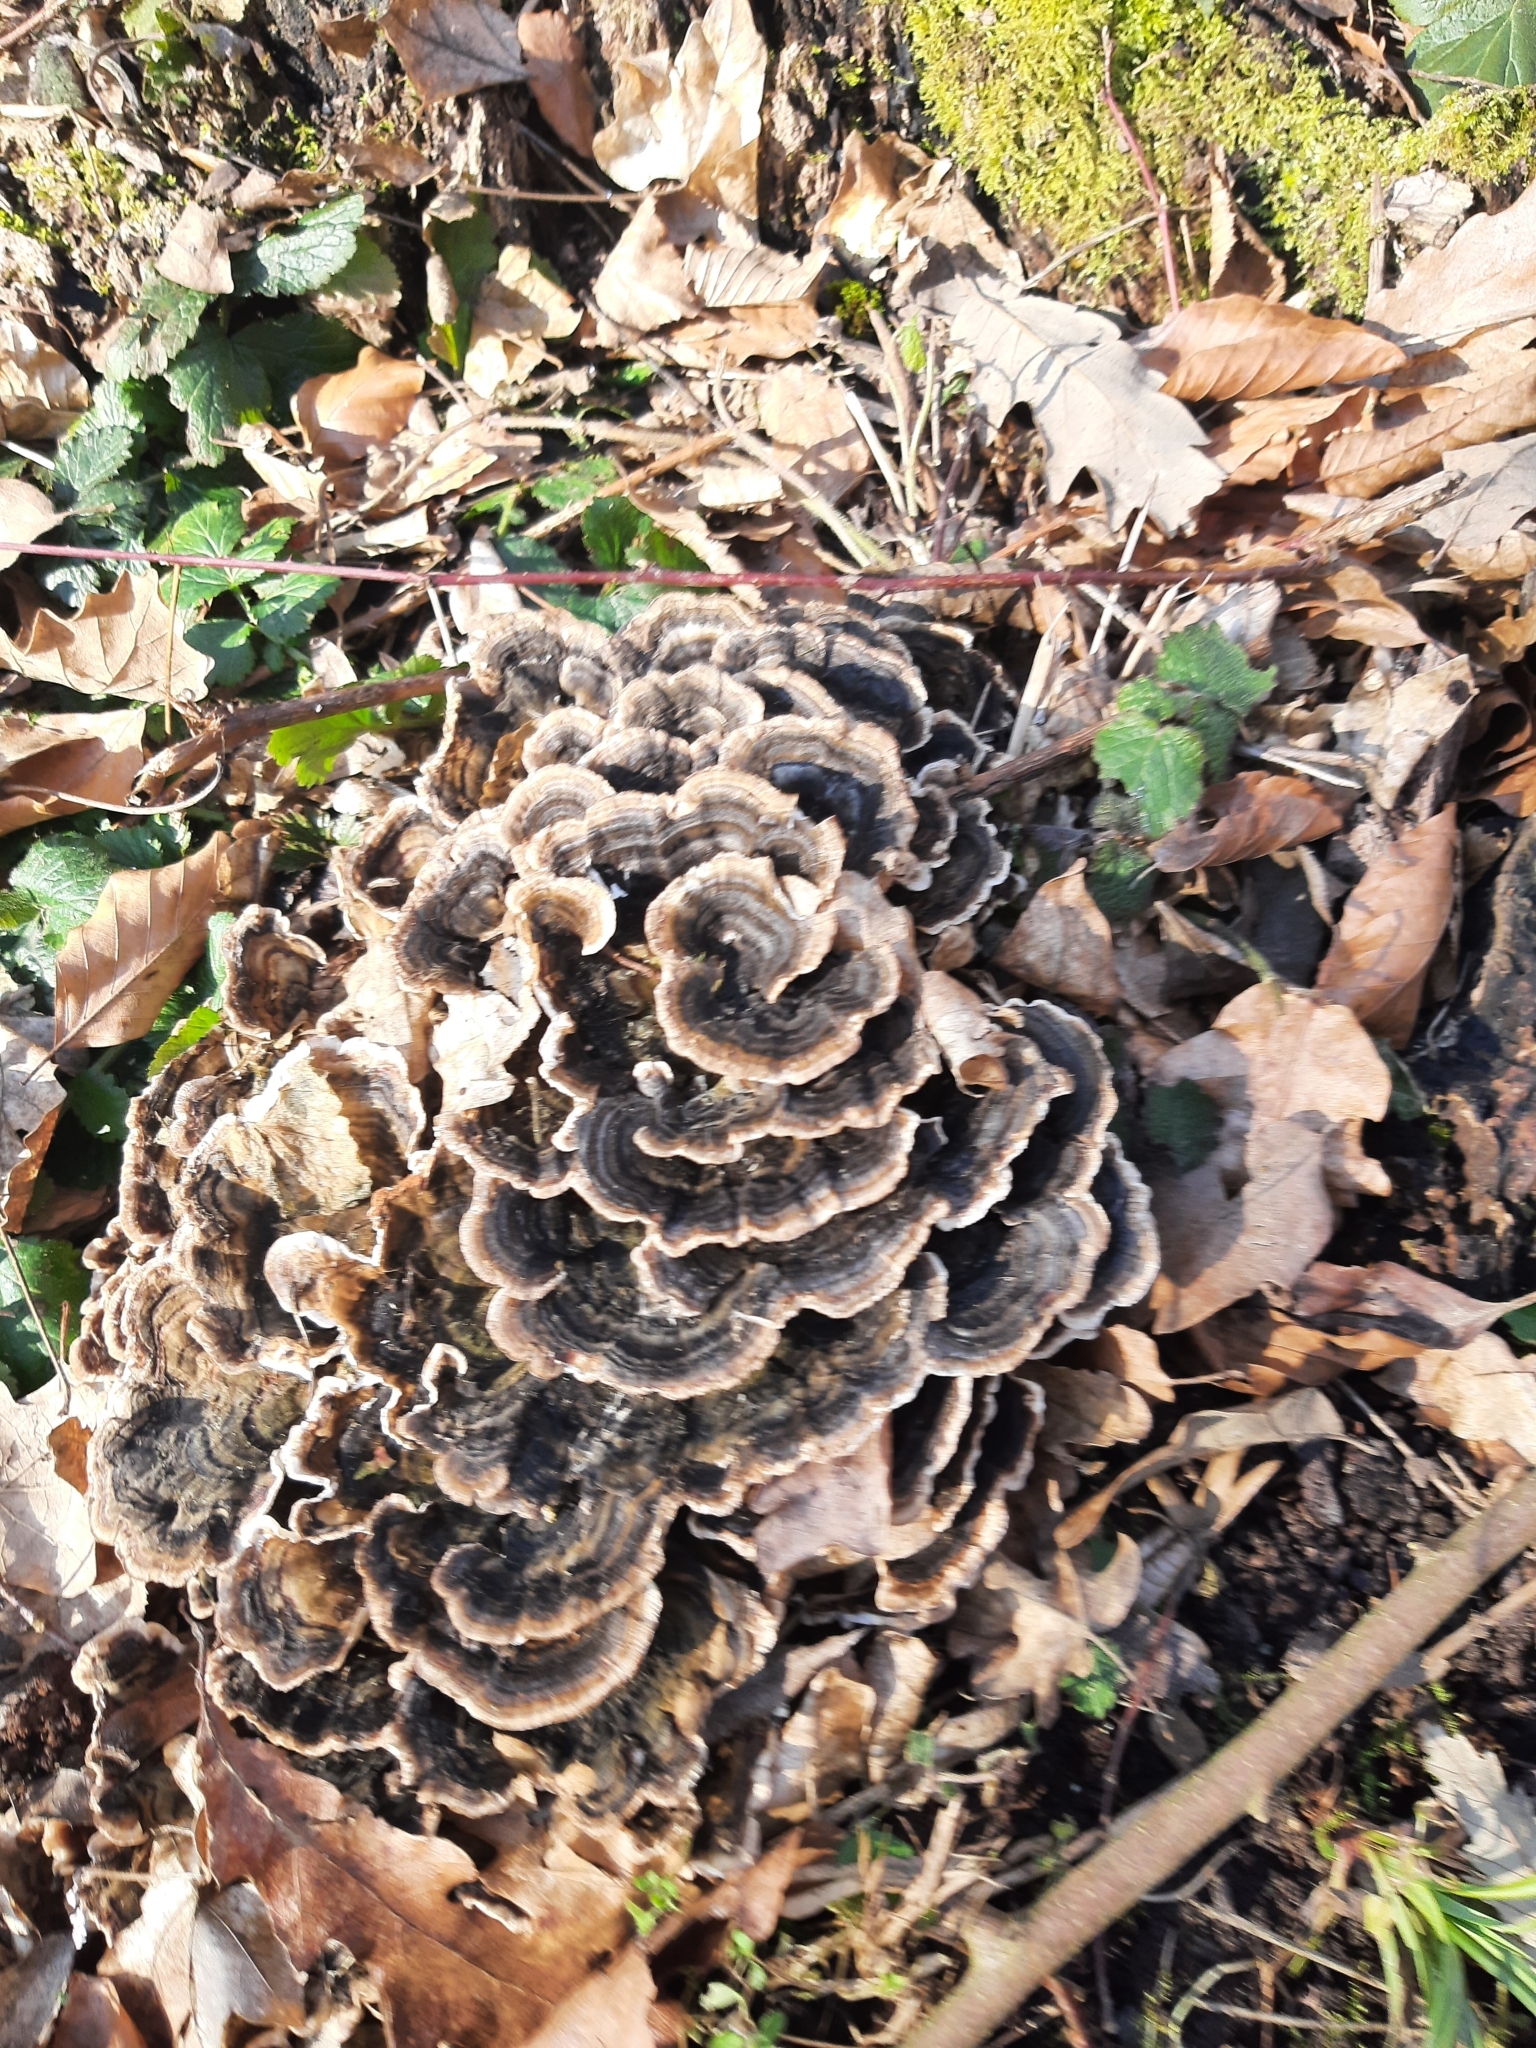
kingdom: Fungi
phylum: Basidiomycota
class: Agaricomycetes
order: Polyporales
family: Polyporaceae
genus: Trametes
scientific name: Trametes versicolor
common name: Turkeytail
